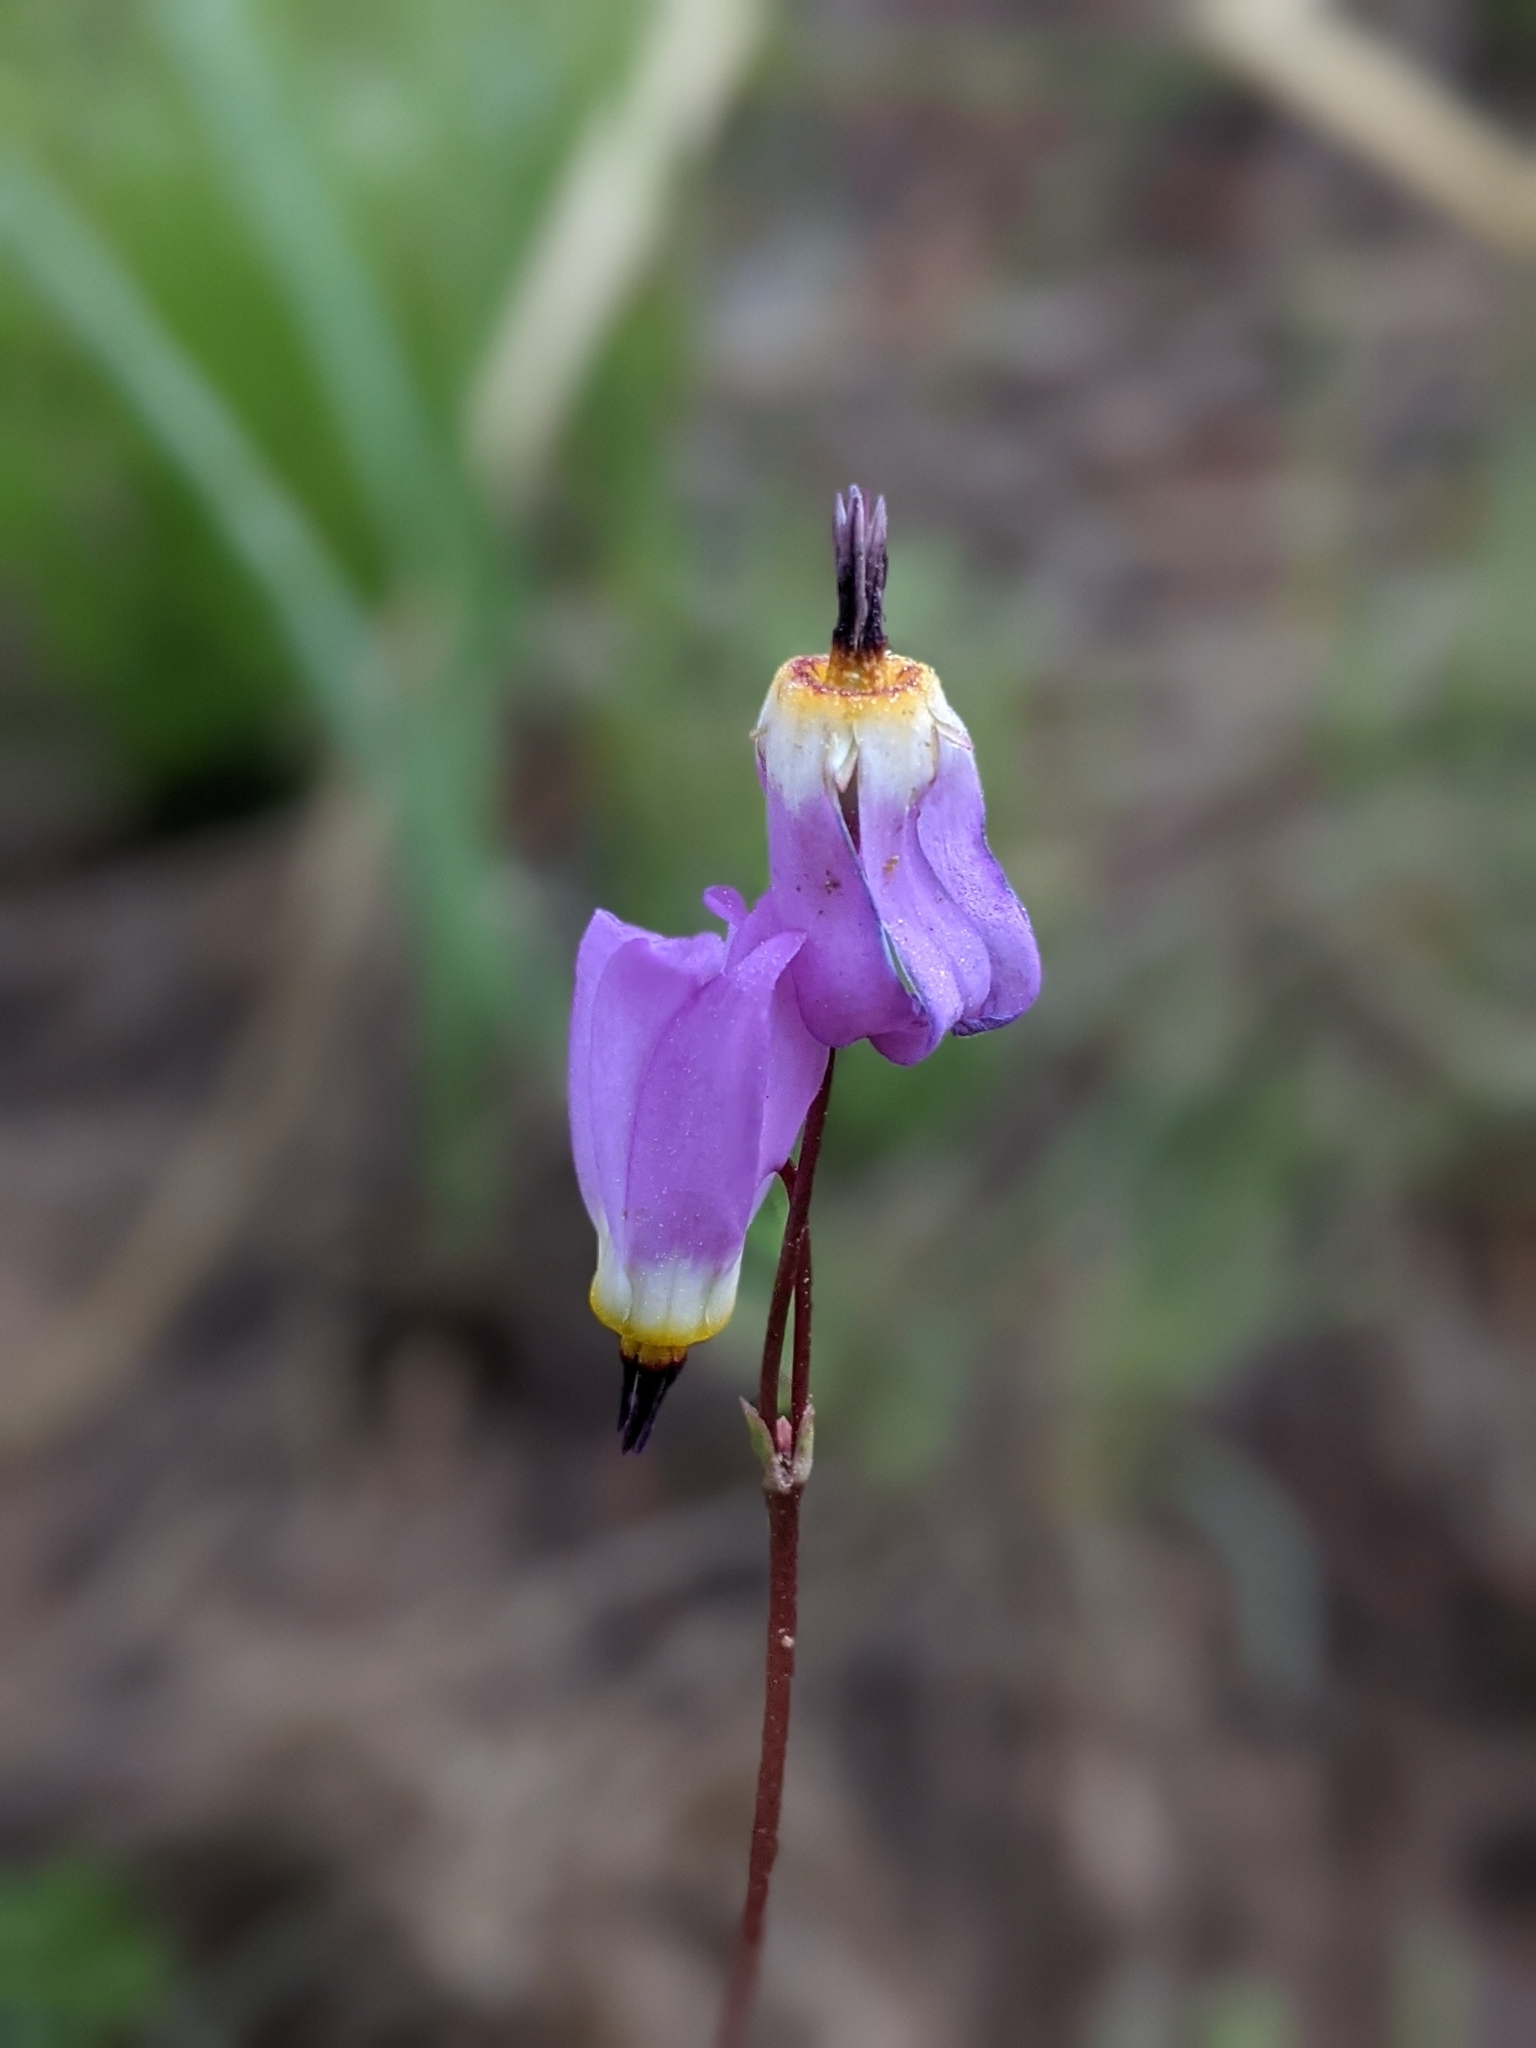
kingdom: Plantae
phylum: Tracheophyta
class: Magnoliopsida
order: Ericales
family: Primulaceae
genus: Dodecatheon
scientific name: Dodecatheon pulchellum
